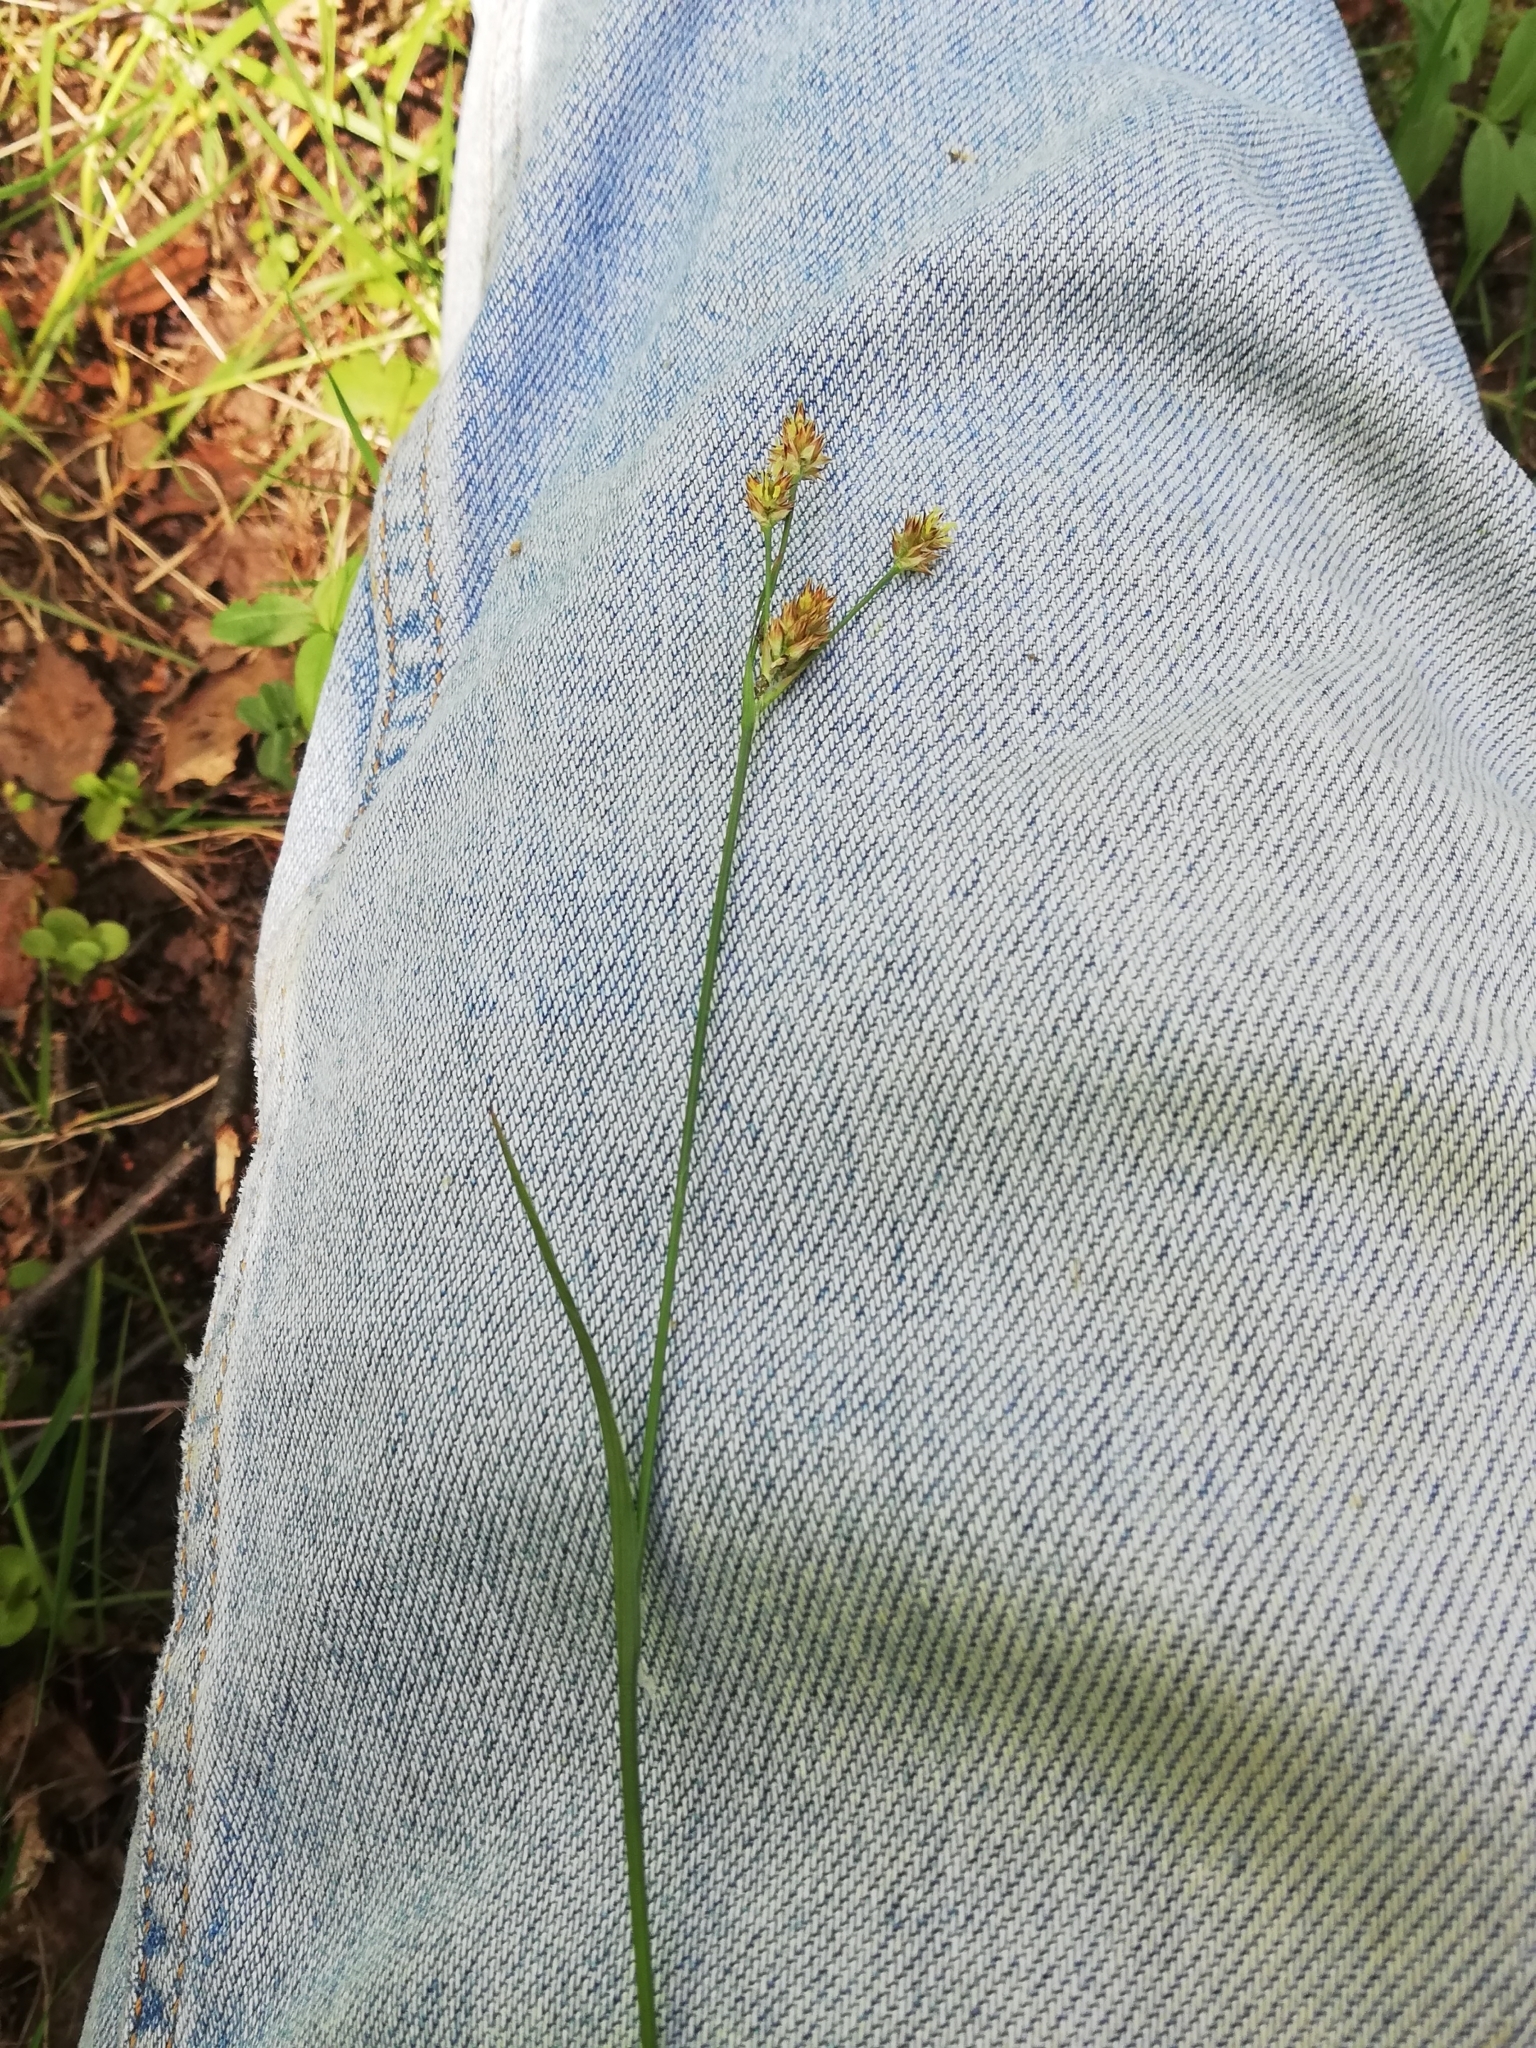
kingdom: Plantae
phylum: Tracheophyta
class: Liliopsida
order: Poales
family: Juncaceae
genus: Luzula
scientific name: Luzula multiflora
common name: Heath wood-rush
